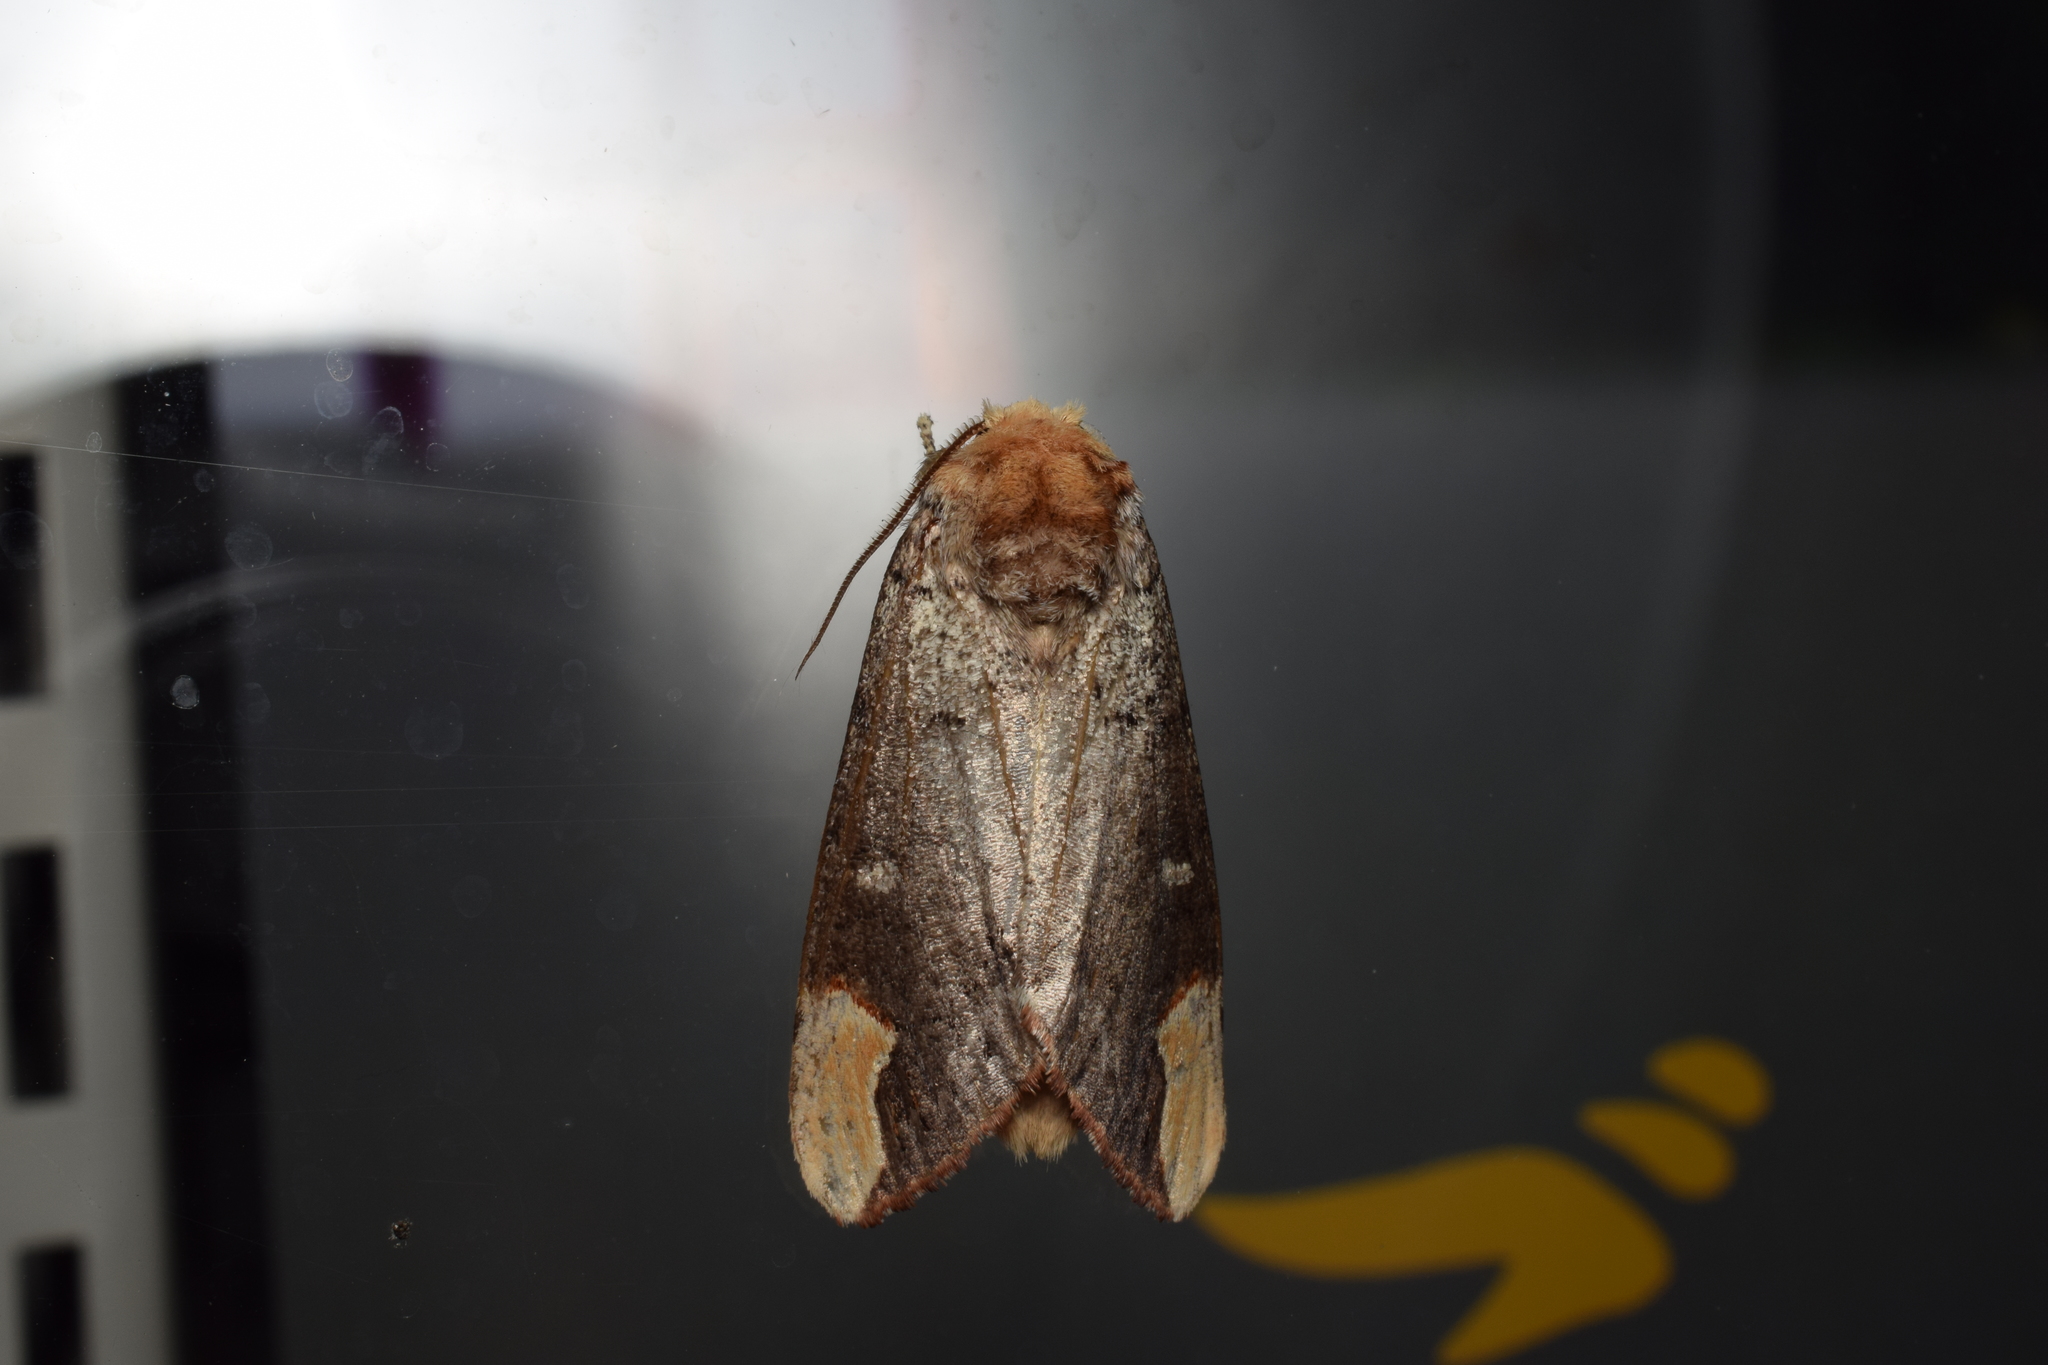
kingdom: Animalia
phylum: Arthropoda
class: Insecta
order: Lepidoptera
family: Notodontidae
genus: Phalera
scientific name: Phalera minor
